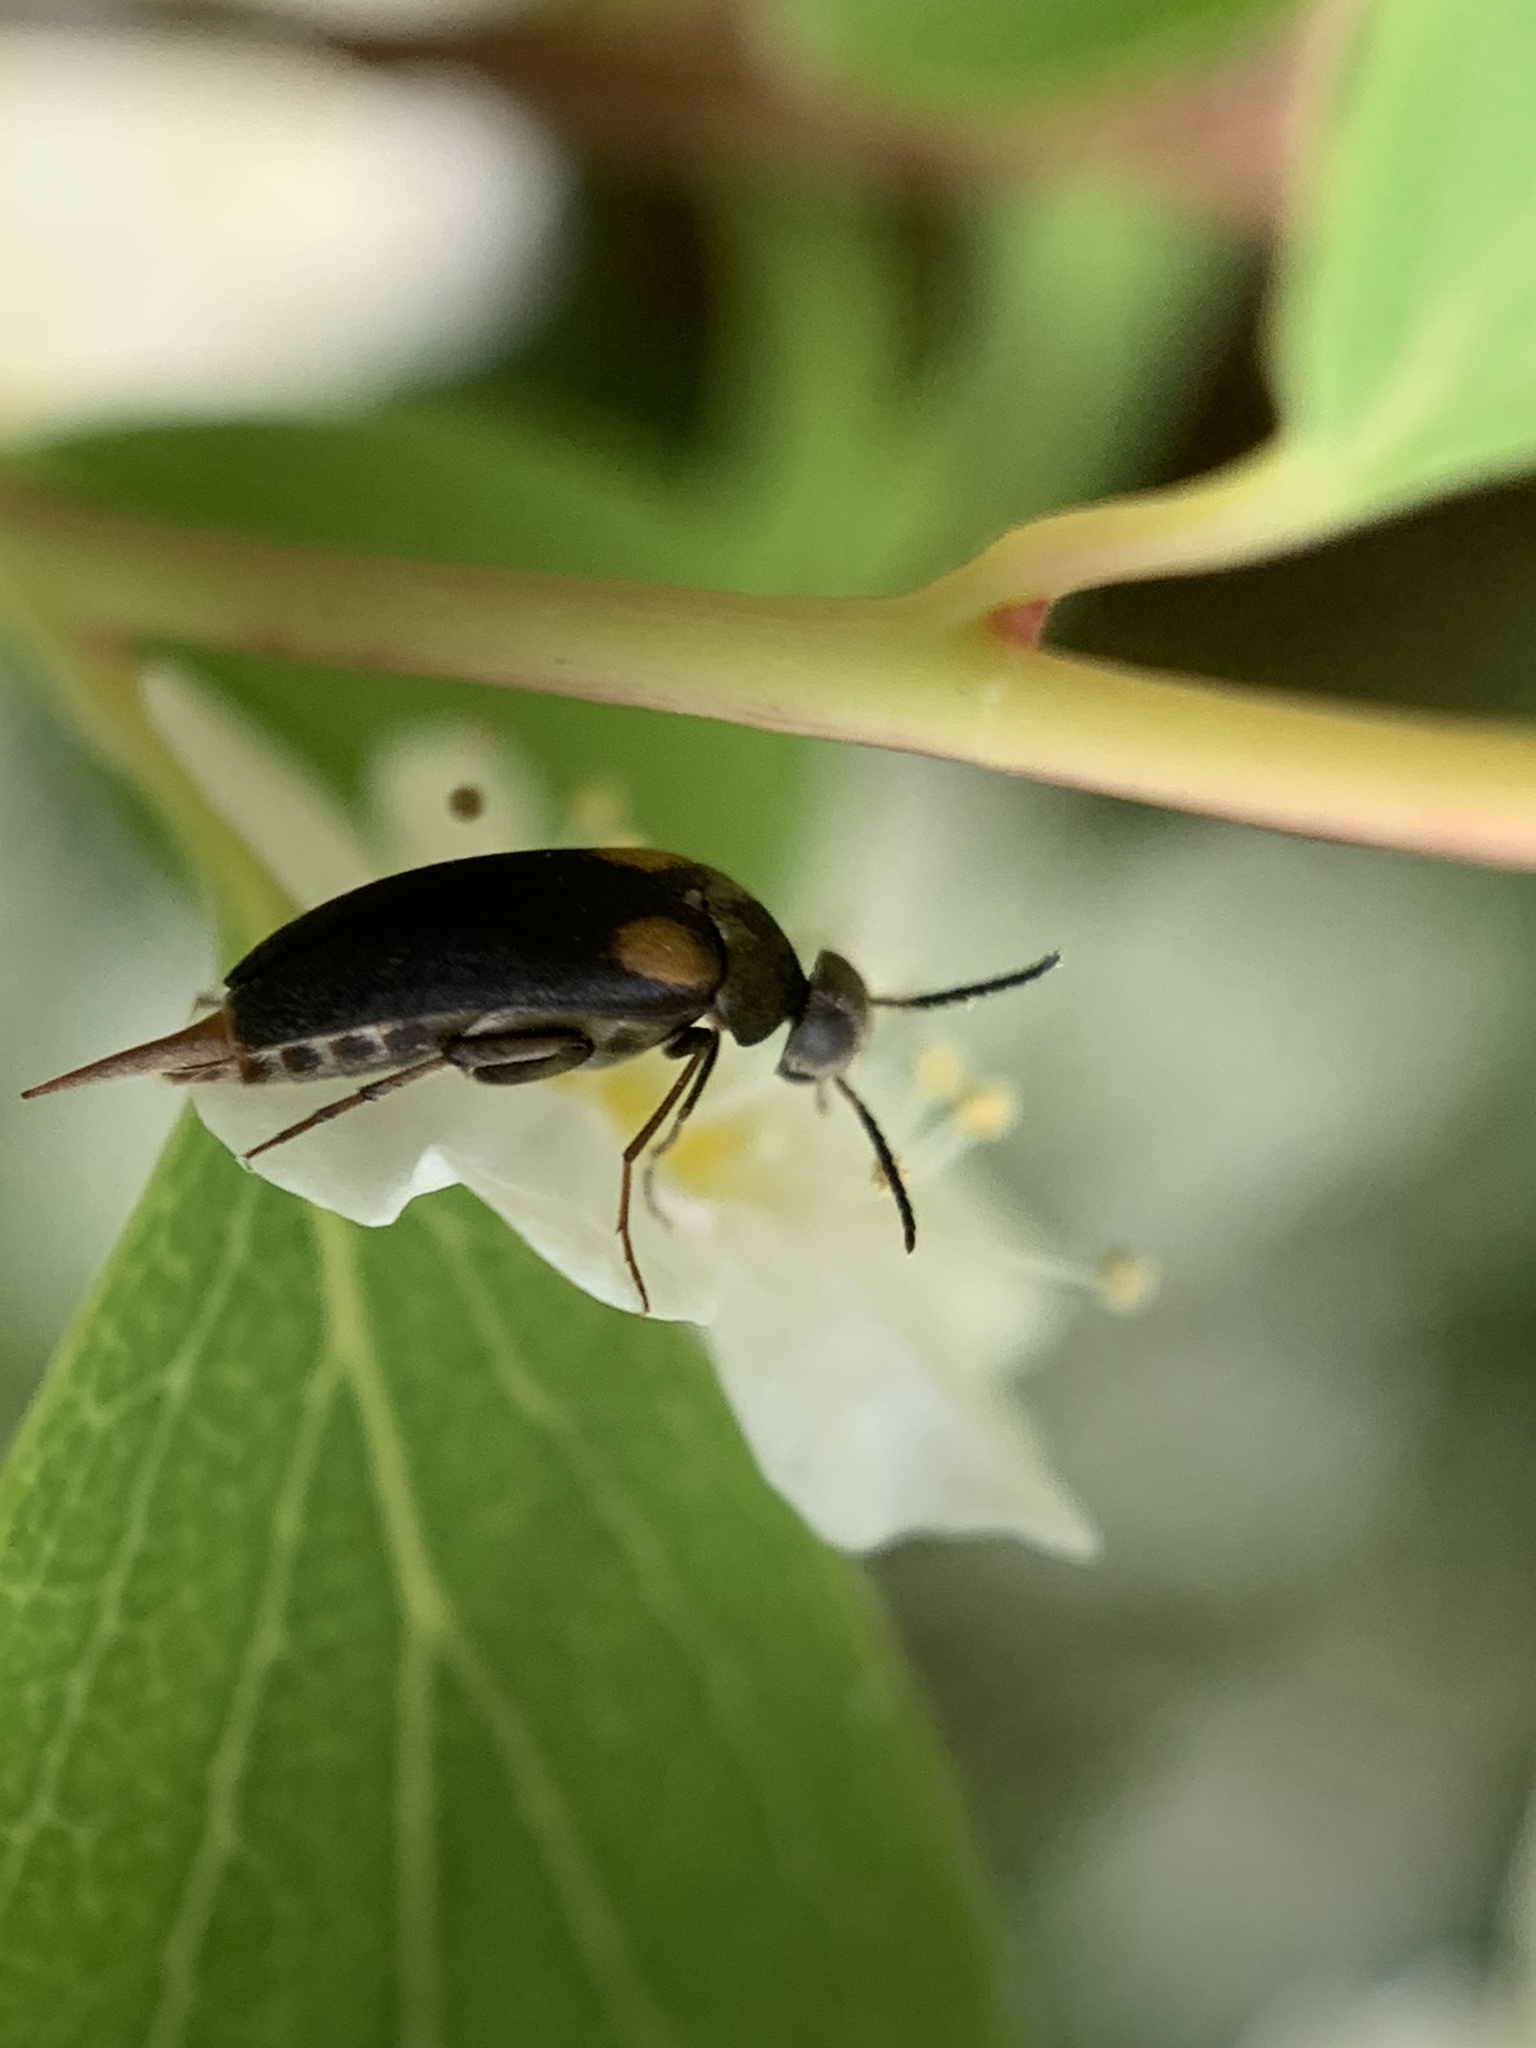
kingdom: Animalia
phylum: Arthropoda
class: Insecta
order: Coleoptera
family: Mordellidae
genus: Mordellochroa
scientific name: Mordellochroa scapularis
